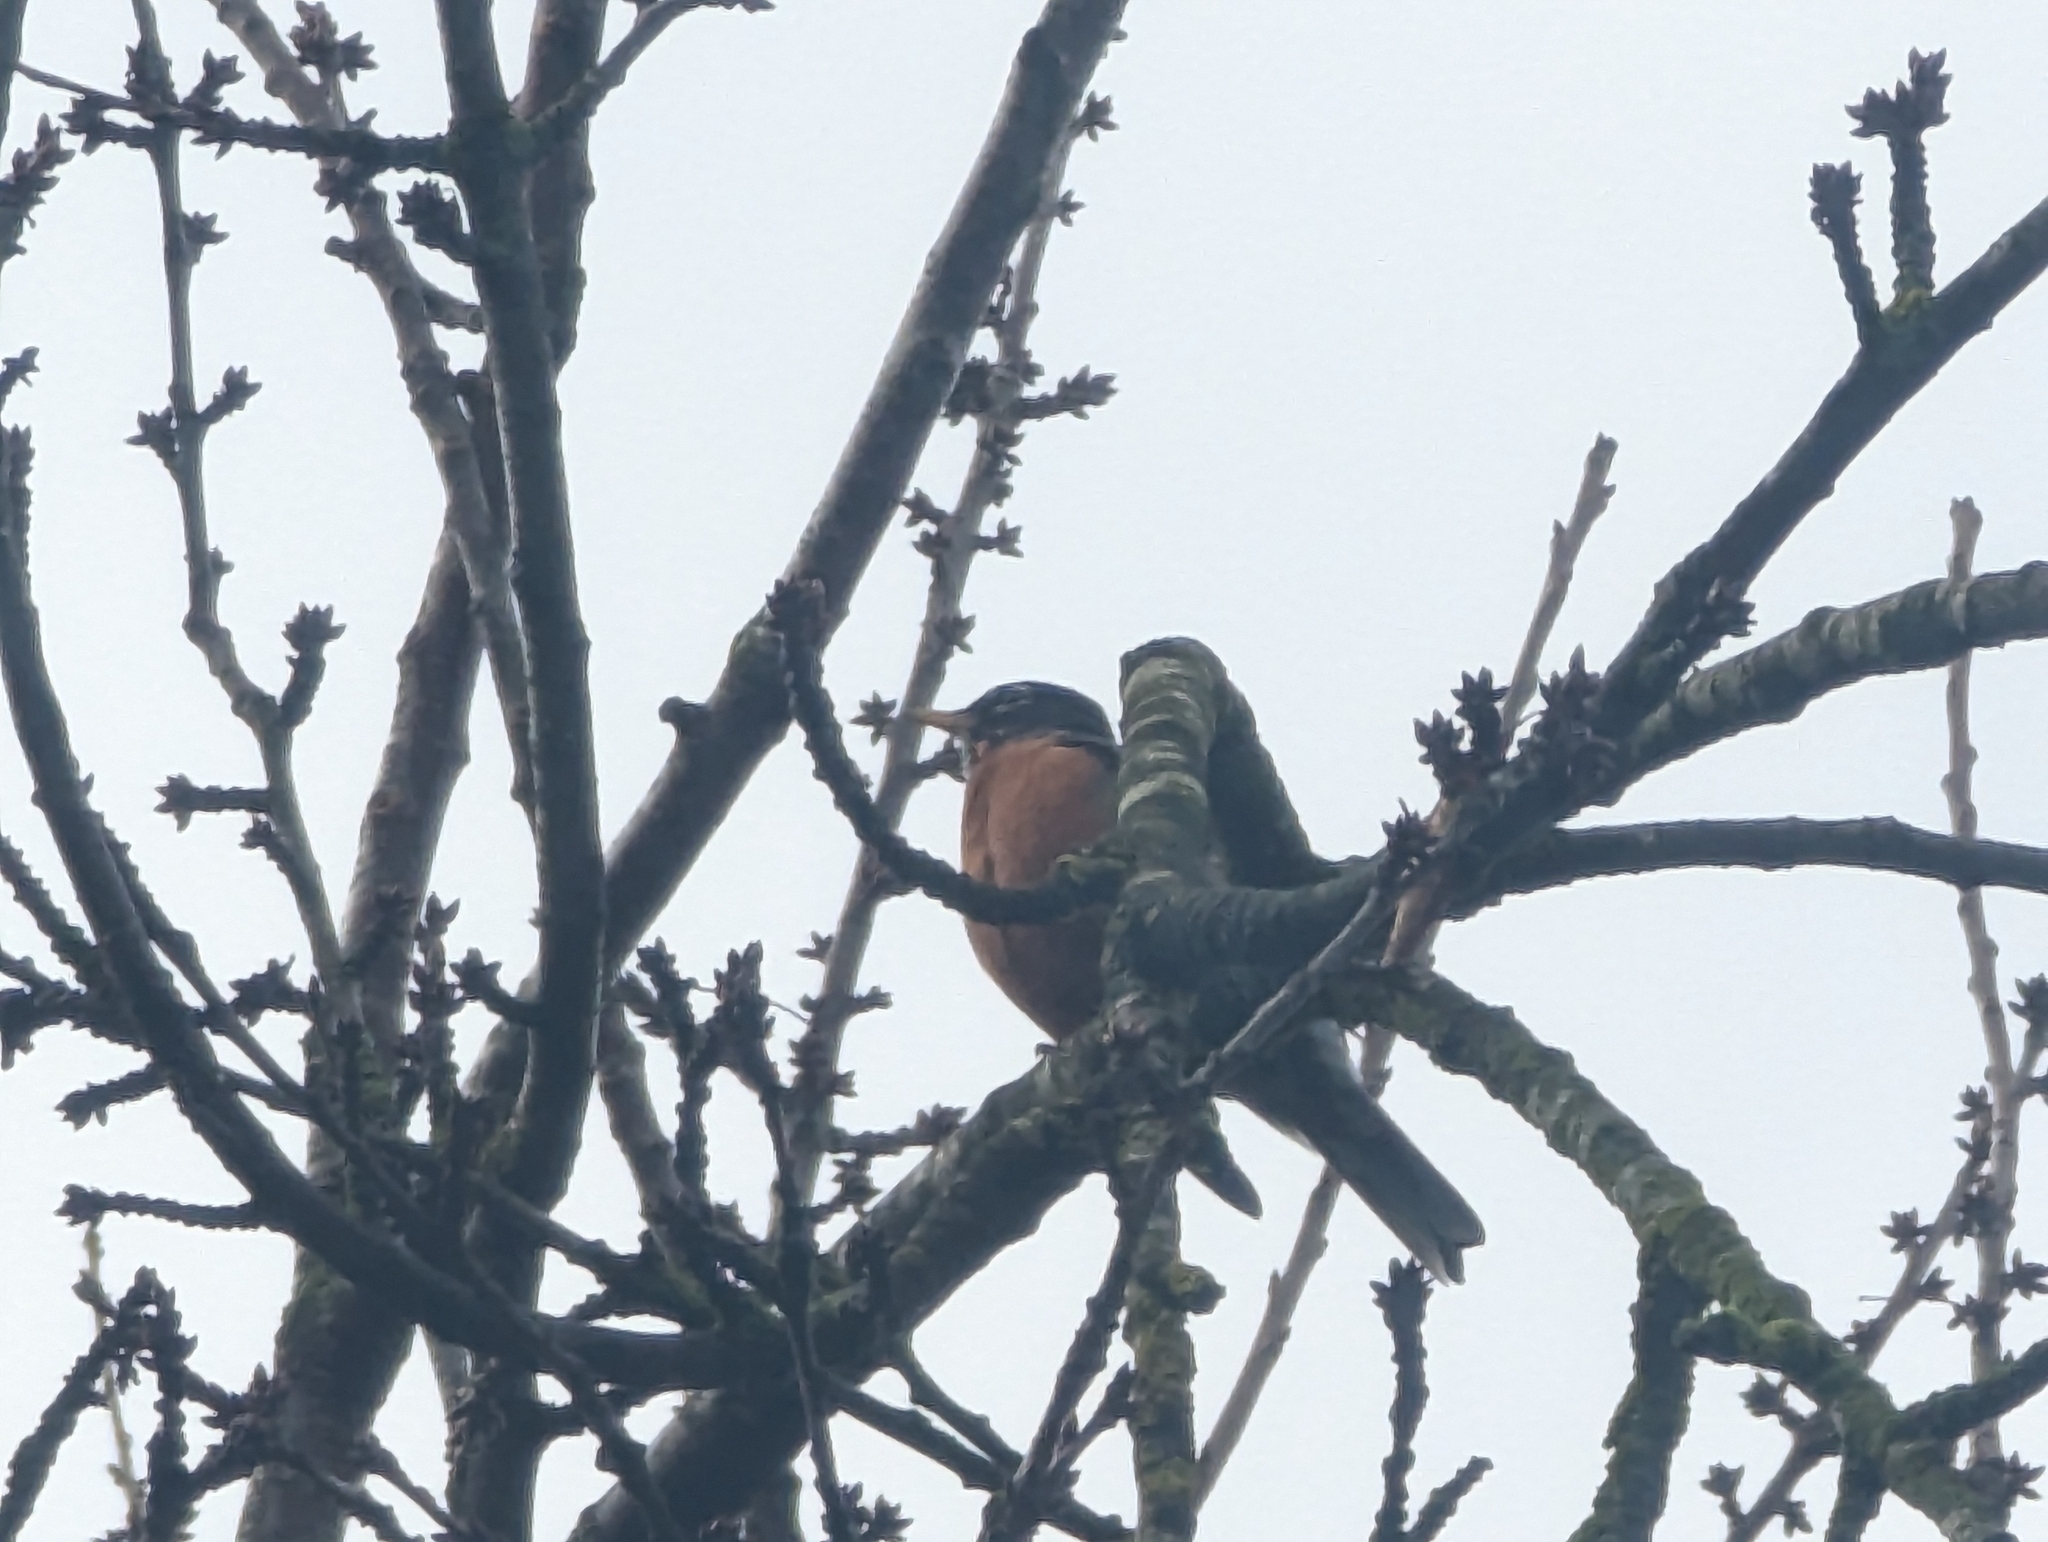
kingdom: Animalia
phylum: Chordata
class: Aves
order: Passeriformes
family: Turdidae
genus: Turdus
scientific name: Turdus migratorius
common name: American robin
